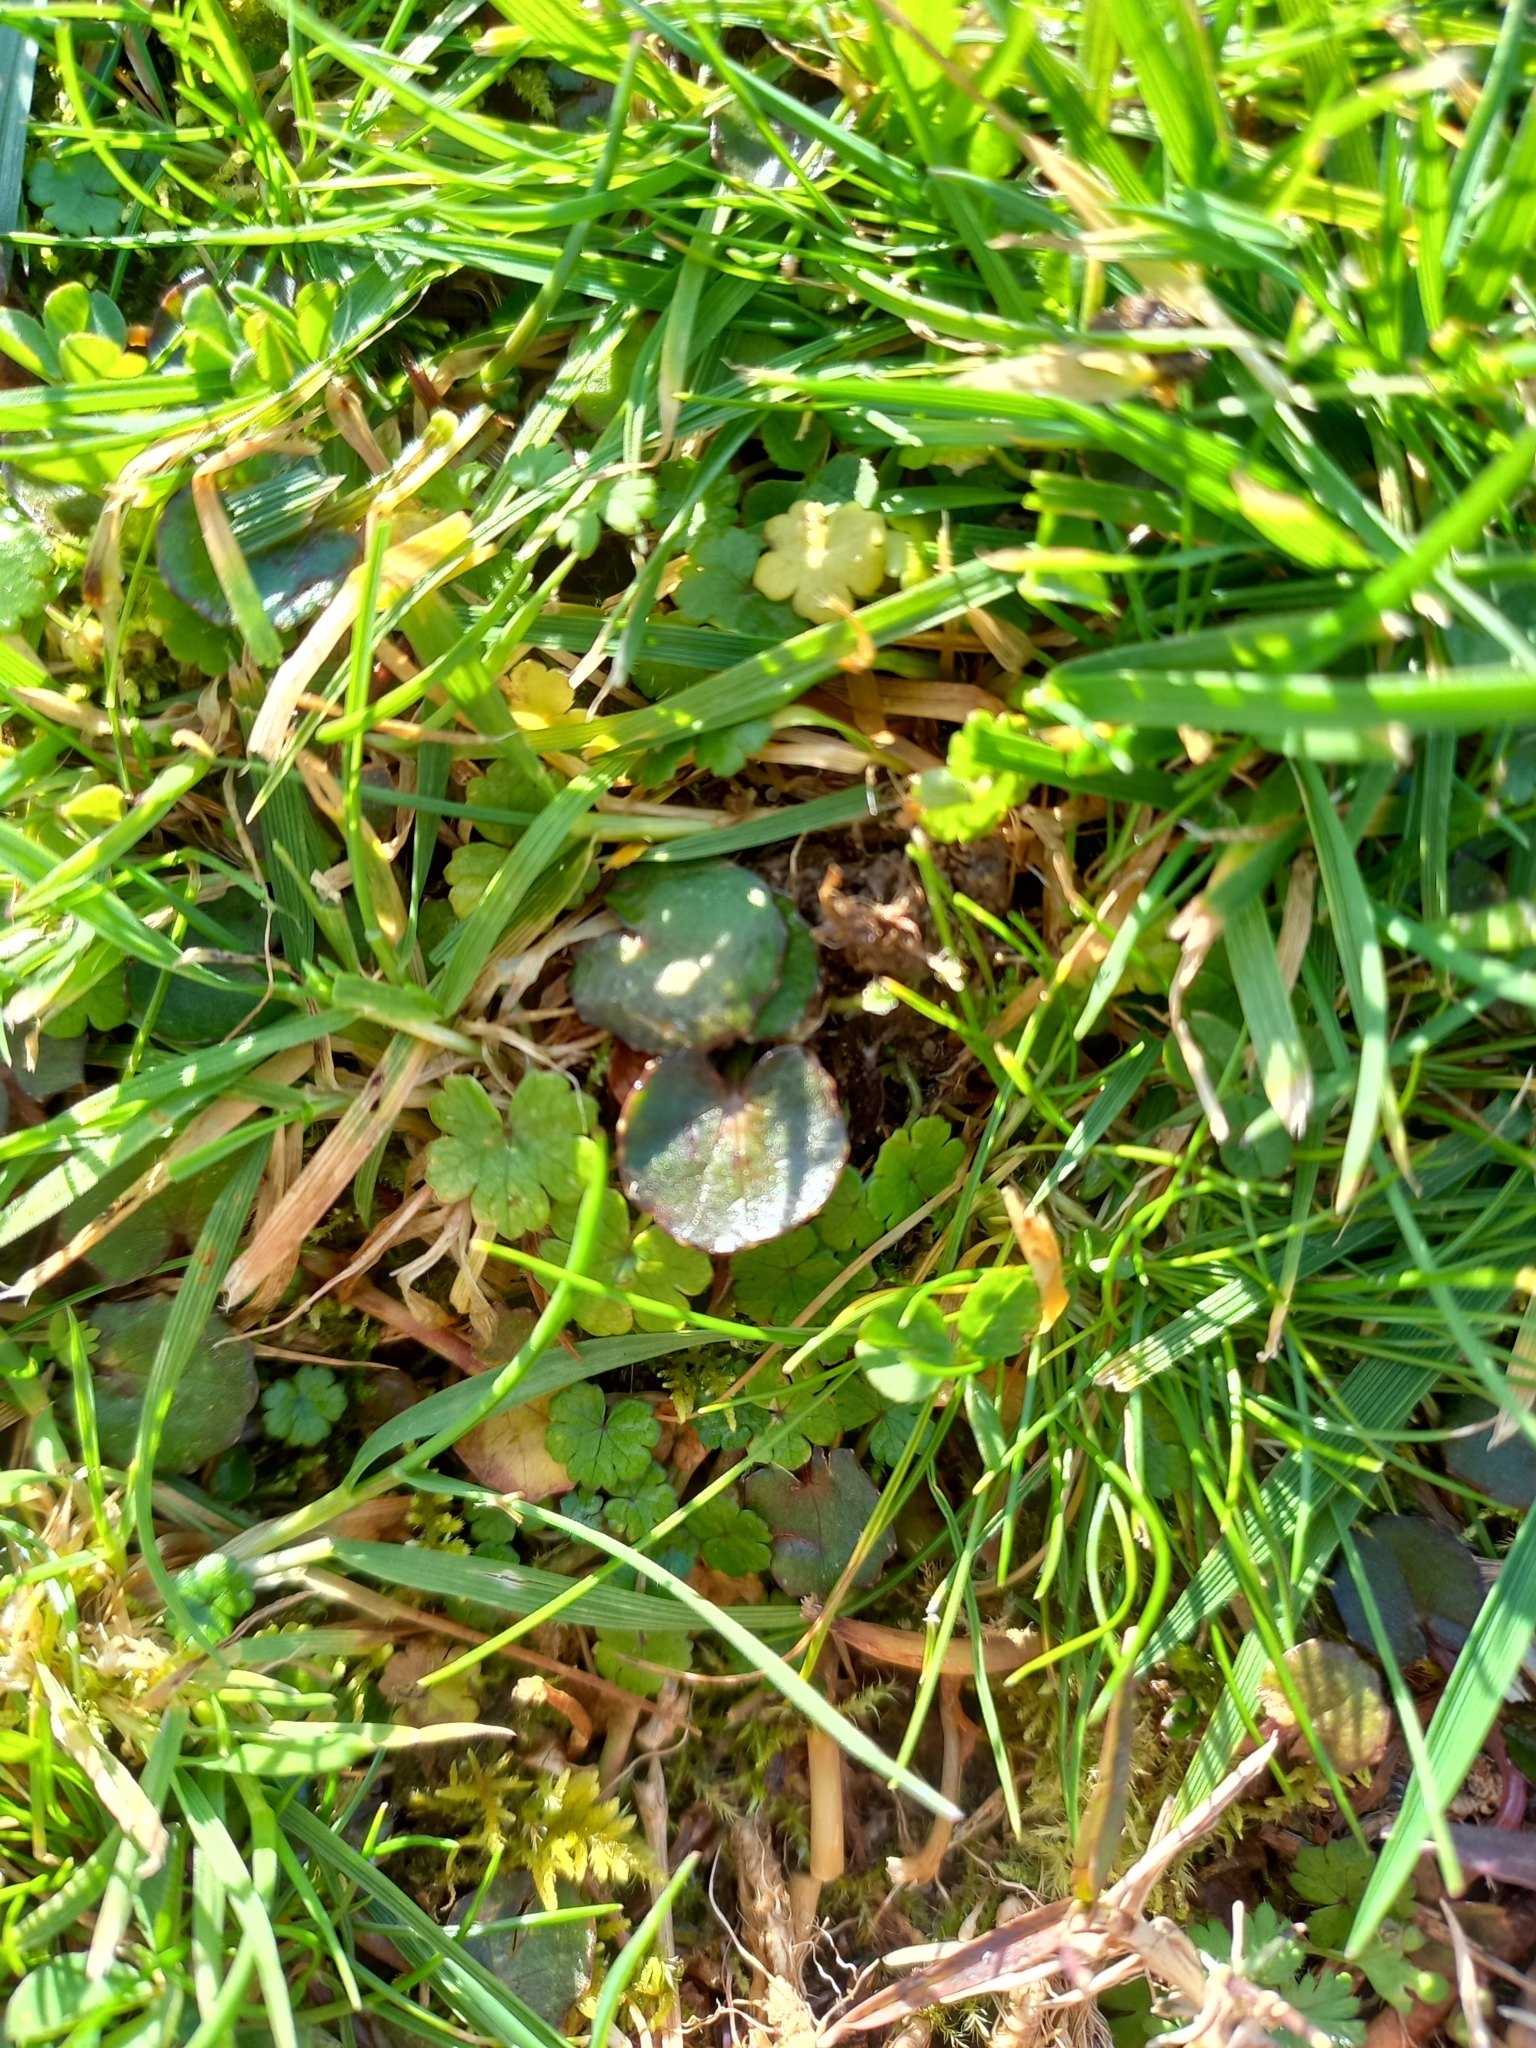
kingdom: Plantae
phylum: Tracheophyta
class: Magnoliopsida
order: Apiales
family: Apiaceae
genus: Centella
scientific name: Centella uniflora
